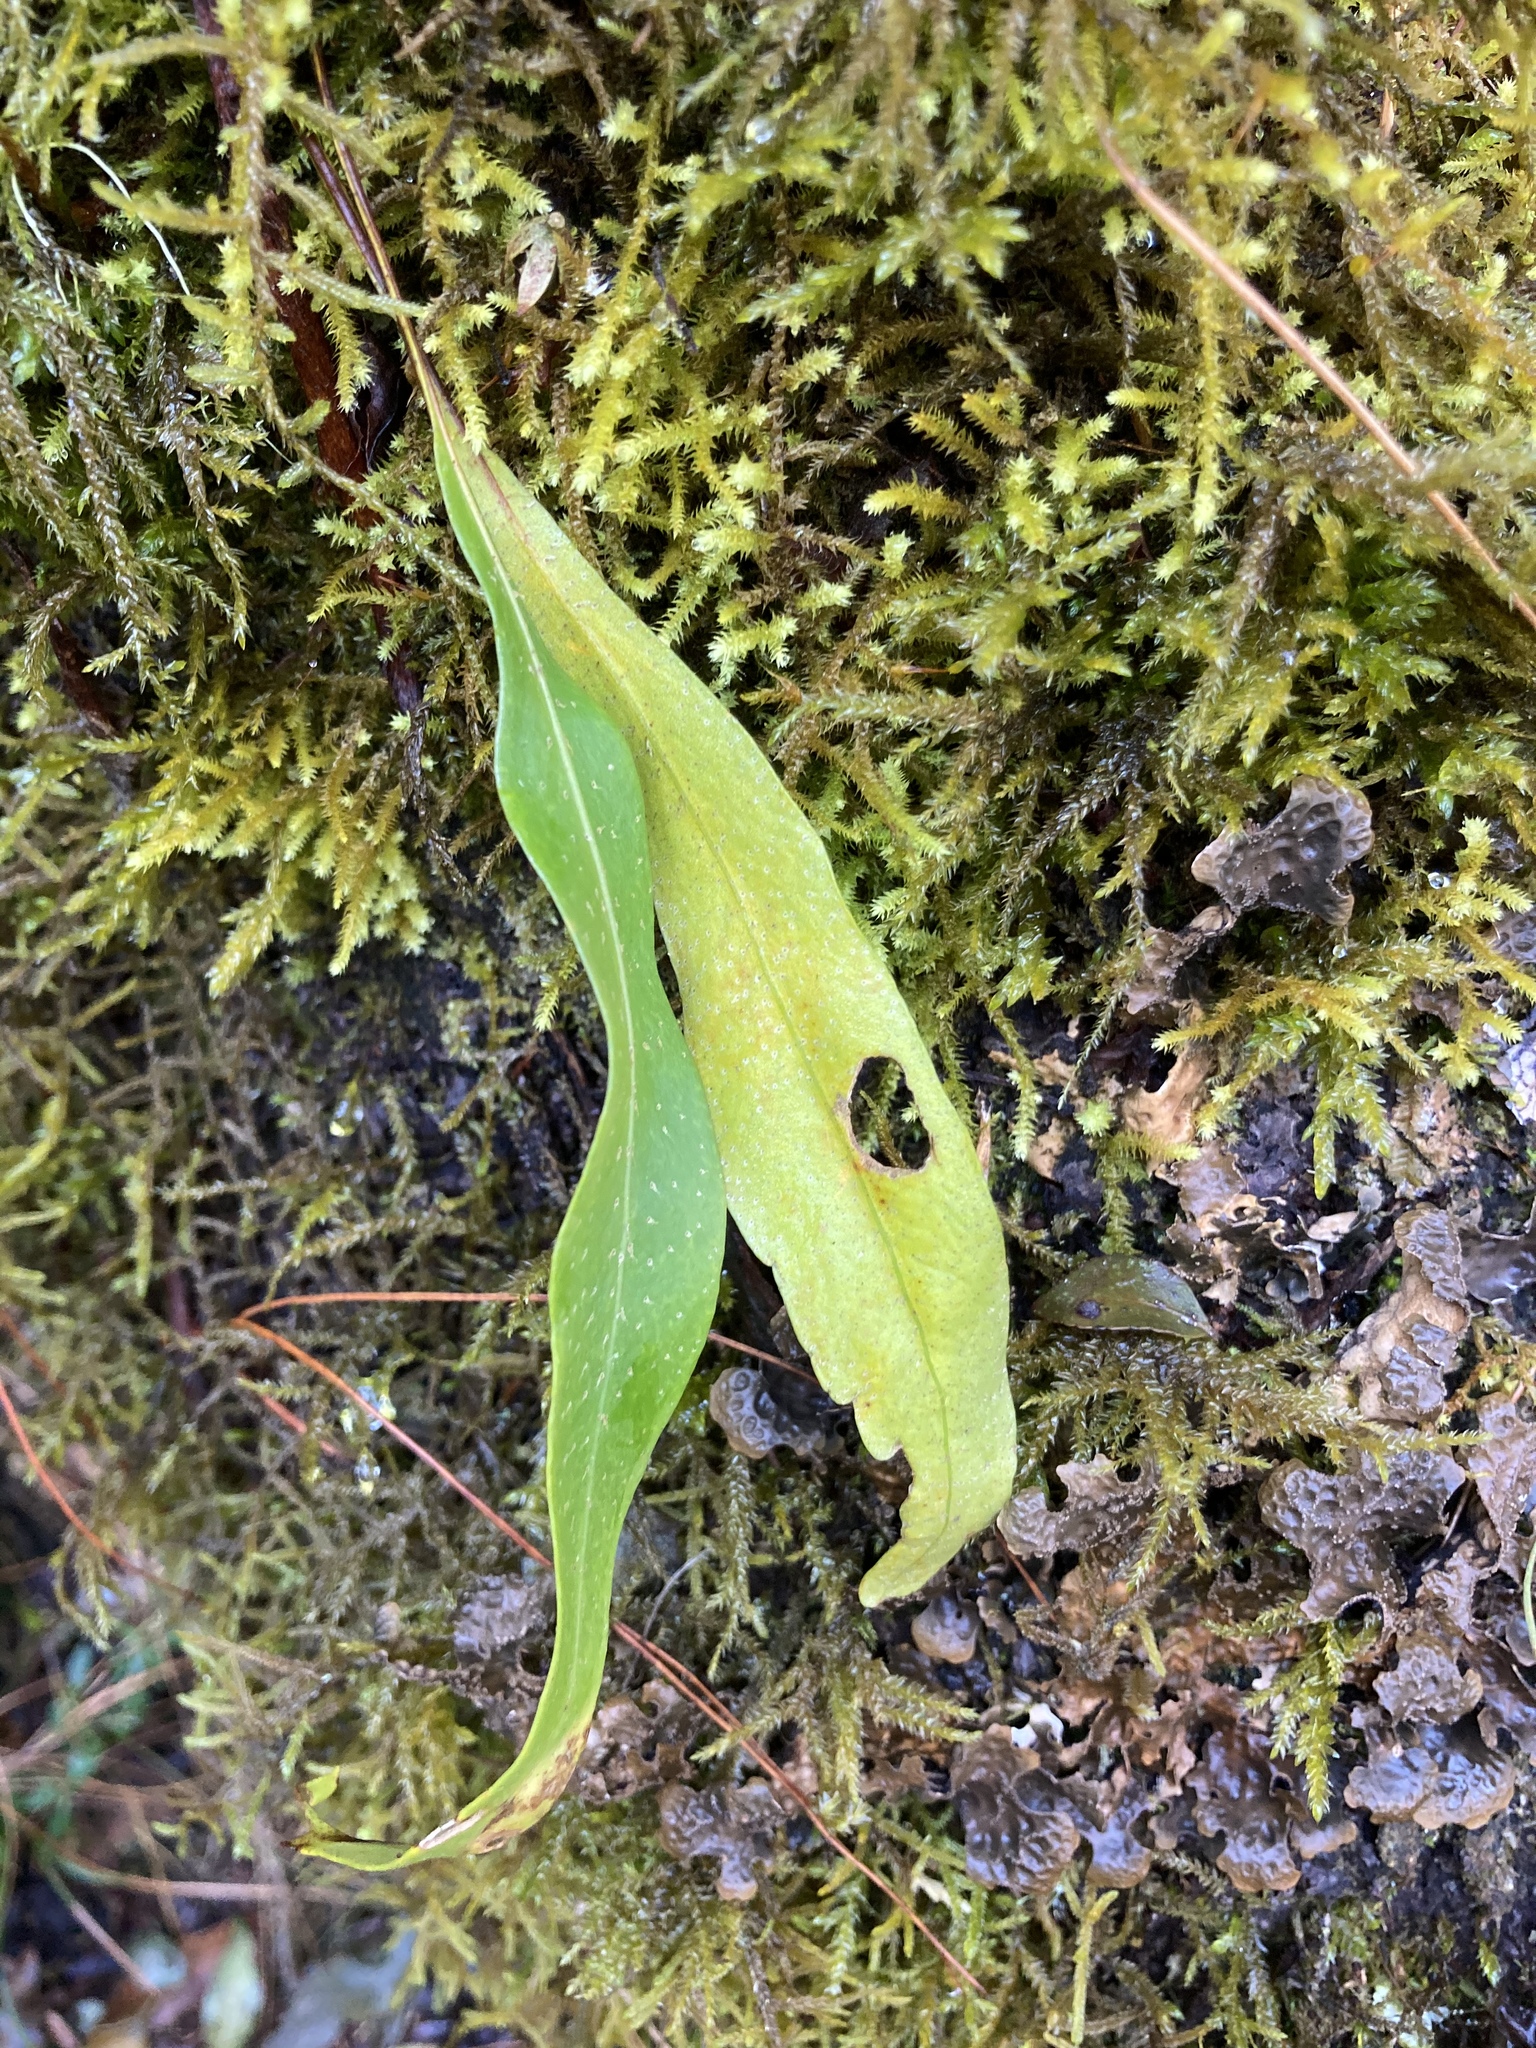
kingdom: Plantae
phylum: Tracheophyta
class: Polypodiopsida
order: Polypodiales
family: Polypodiaceae
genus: Pleopeltis
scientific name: Pleopeltis macrocarpa
